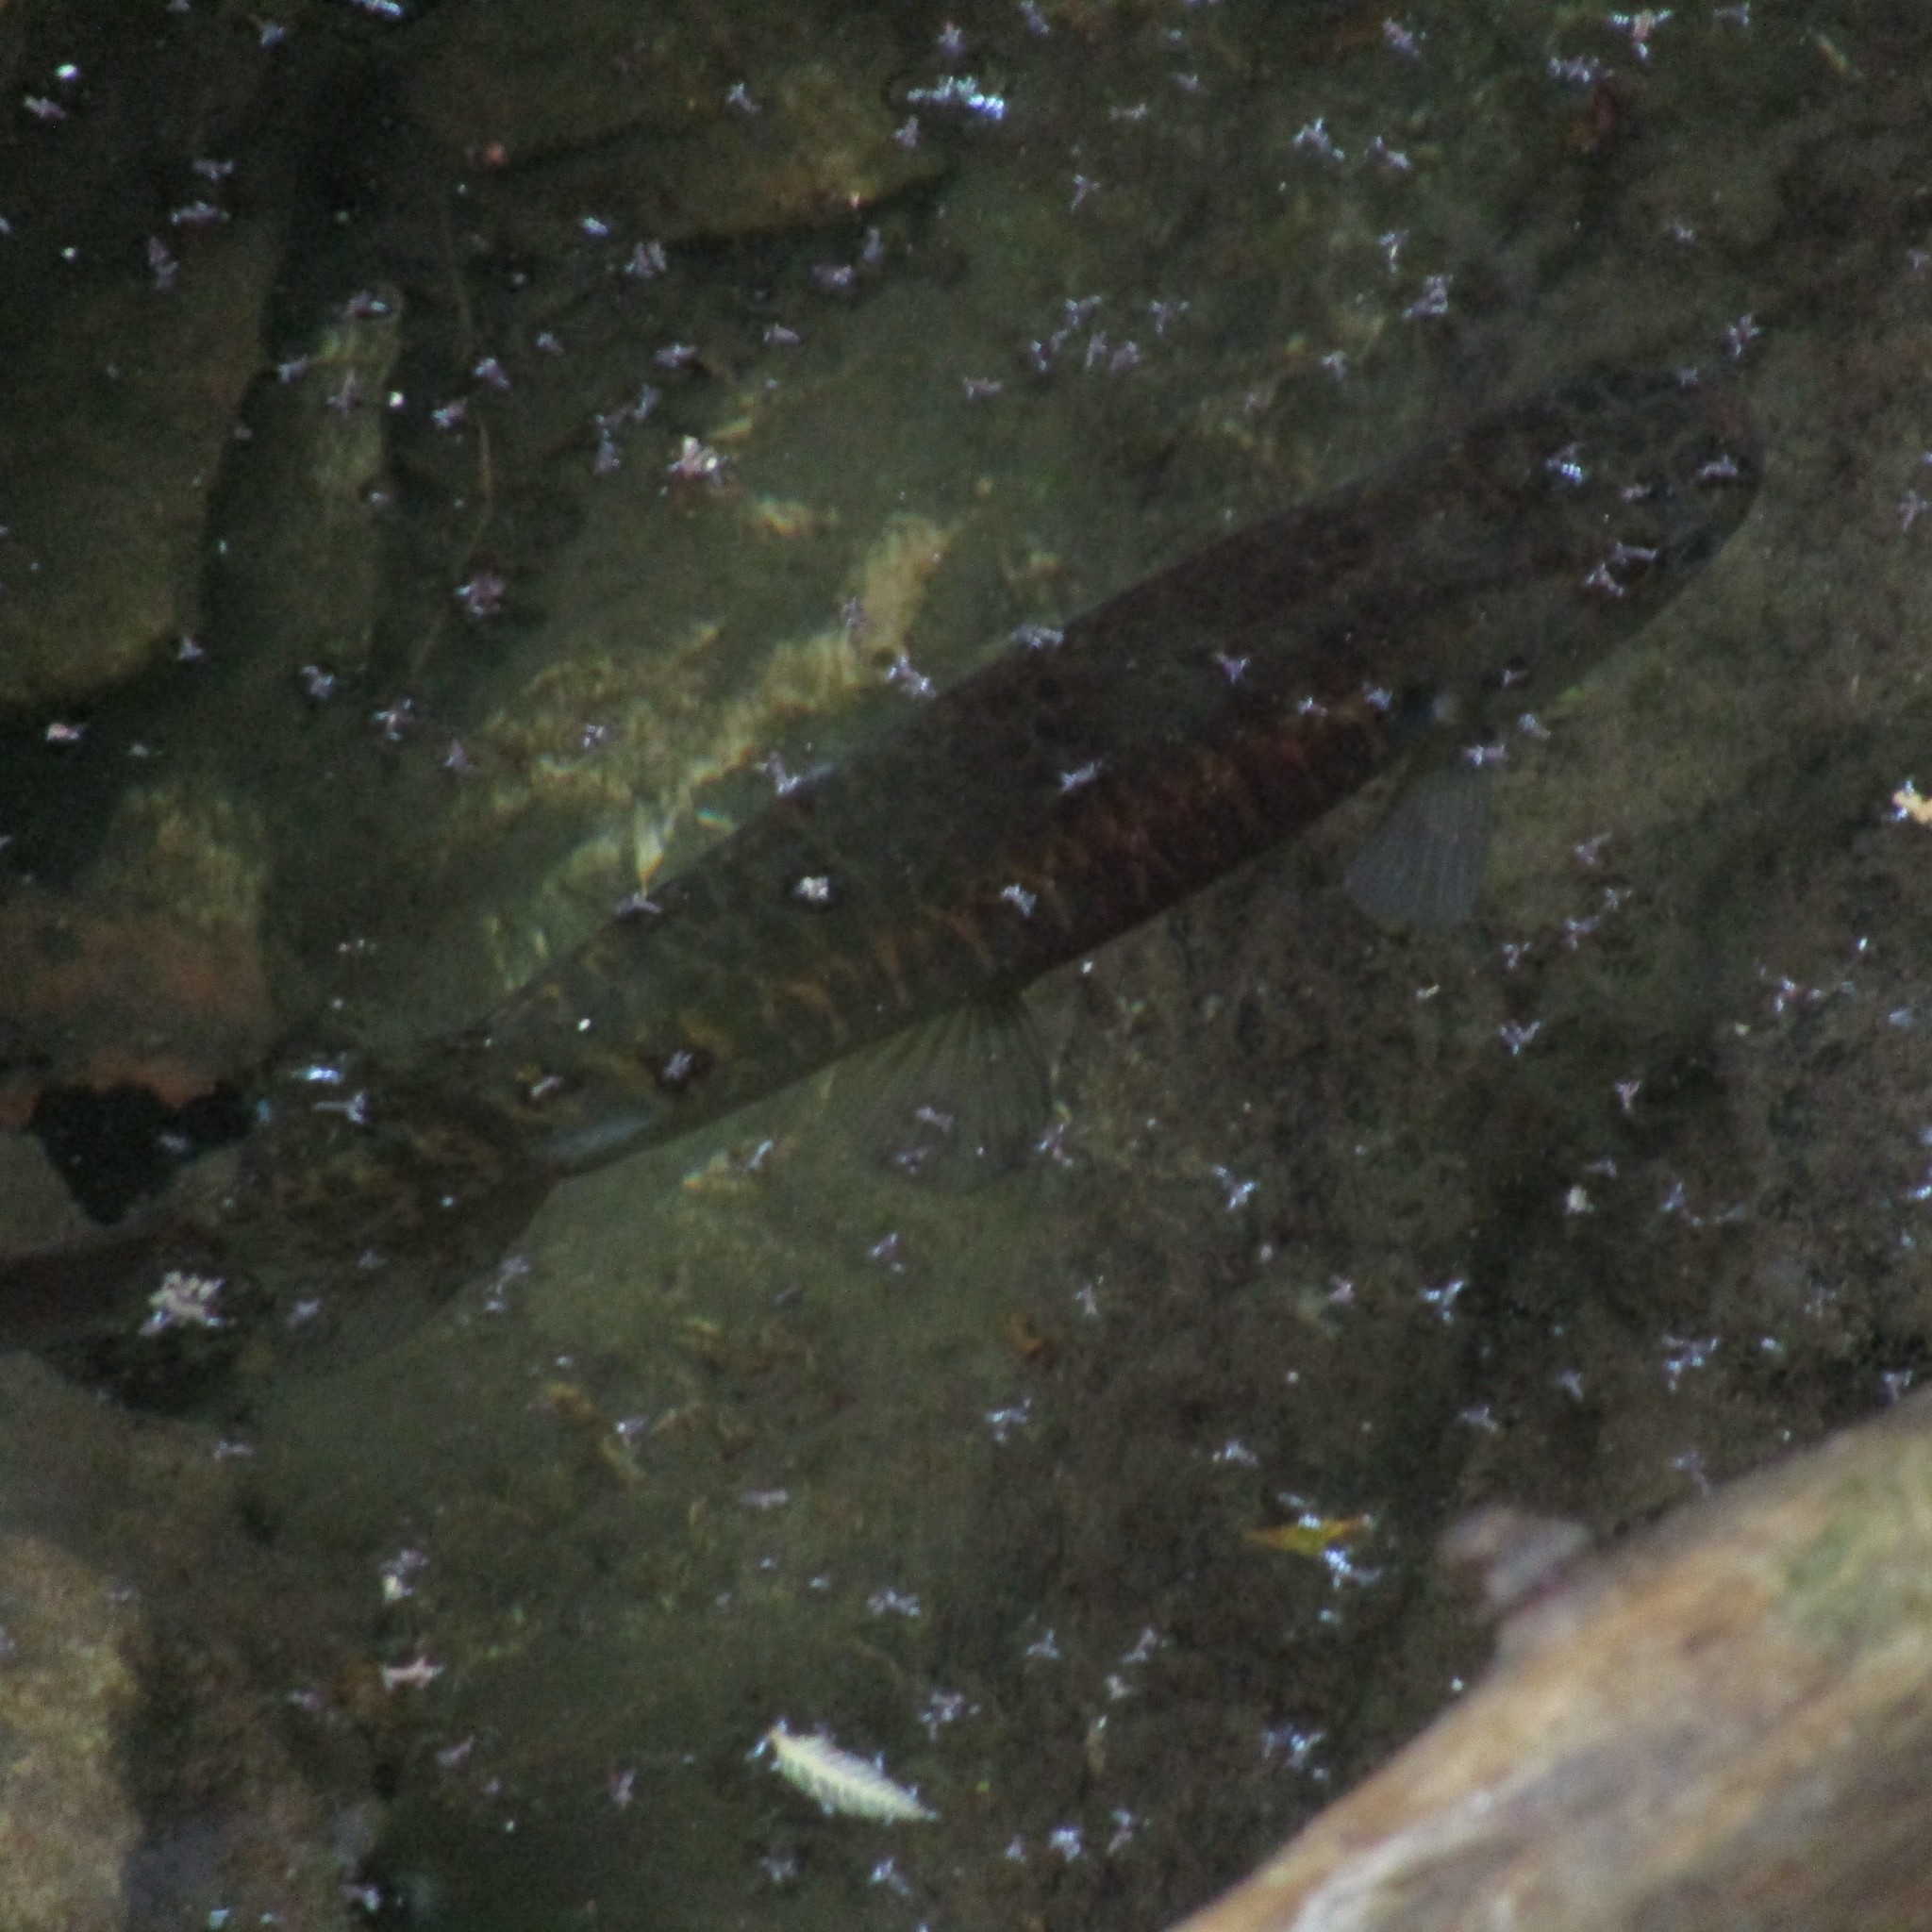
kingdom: Animalia
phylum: Chordata
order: Osmeriformes
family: Galaxiidae
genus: Galaxias
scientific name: Galaxias fasciatus
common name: Banded kokopu
